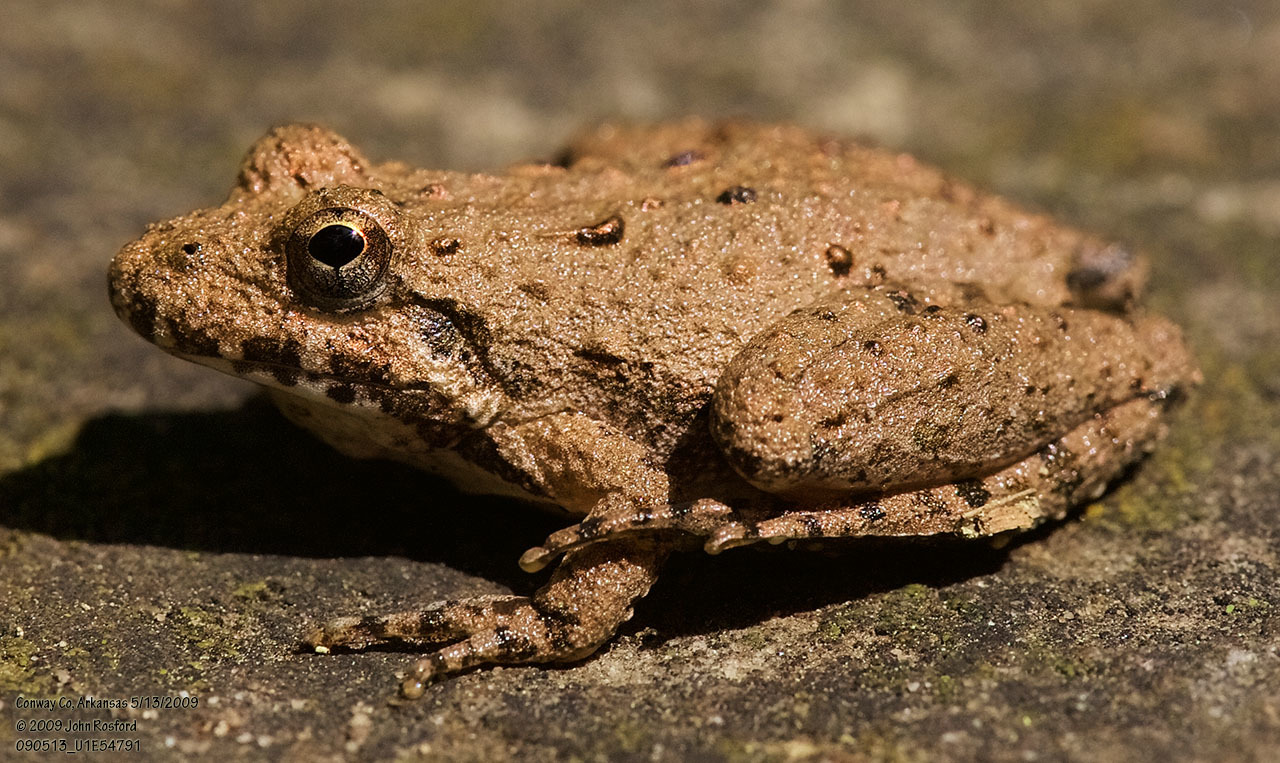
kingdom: Animalia
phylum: Chordata
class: Amphibia
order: Anura
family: Hylidae
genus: Acris
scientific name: Acris blanchardi
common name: Blanchard's cricket frog
